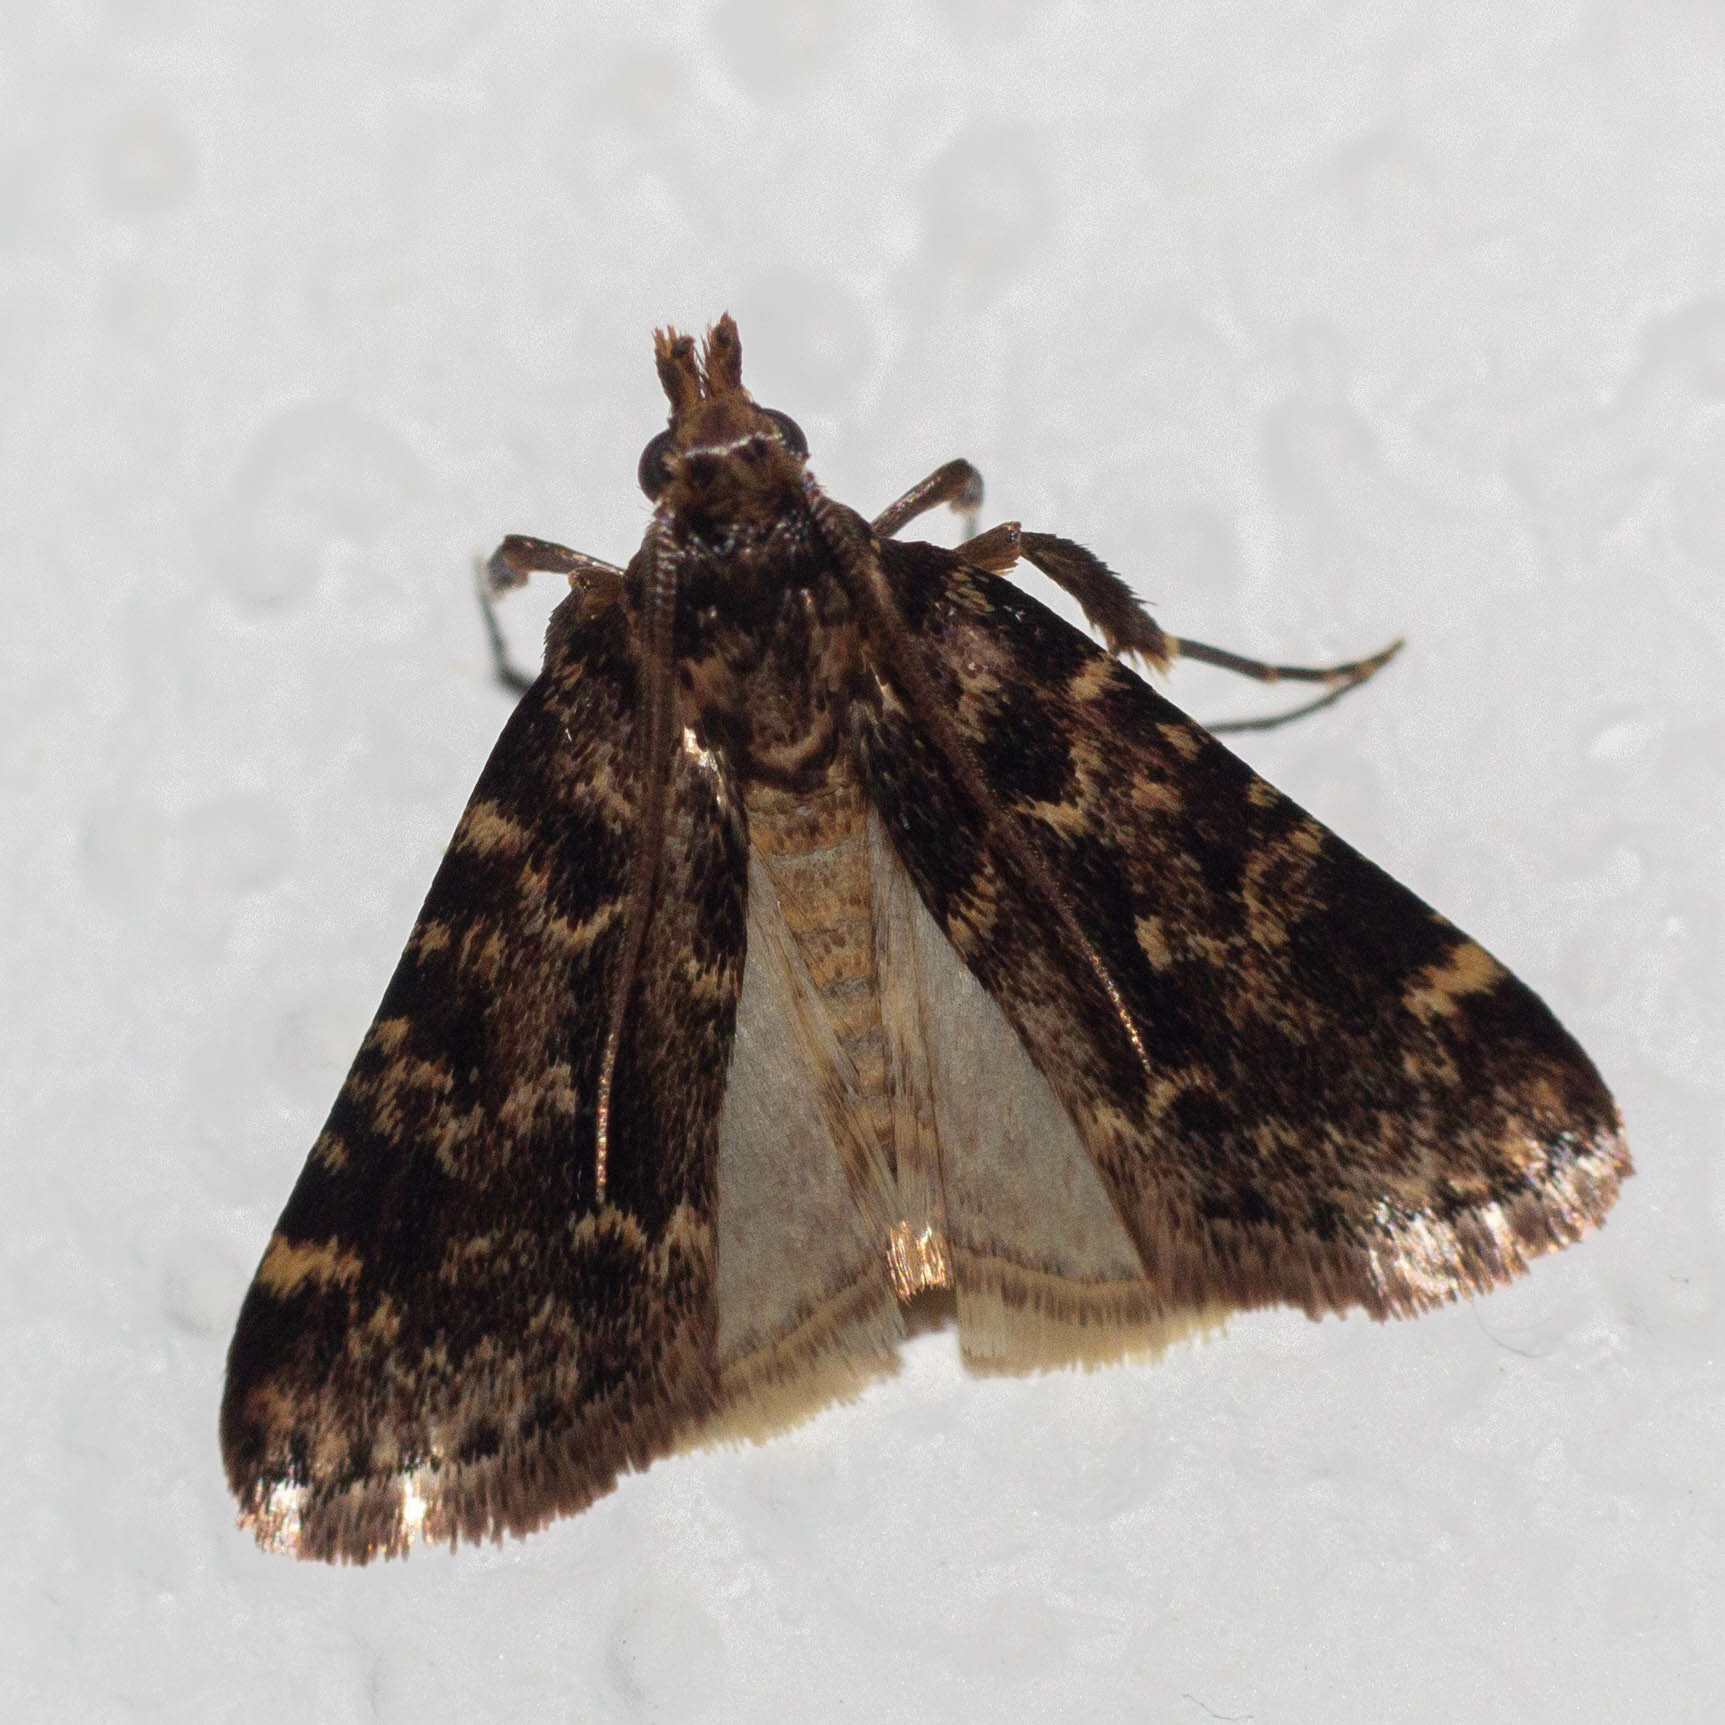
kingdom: Animalia
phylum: Arthropoda
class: Insecta
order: Lepidoptera
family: Pyralidae
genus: Aglossa
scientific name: Aglossa caprealis
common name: Small tabby
